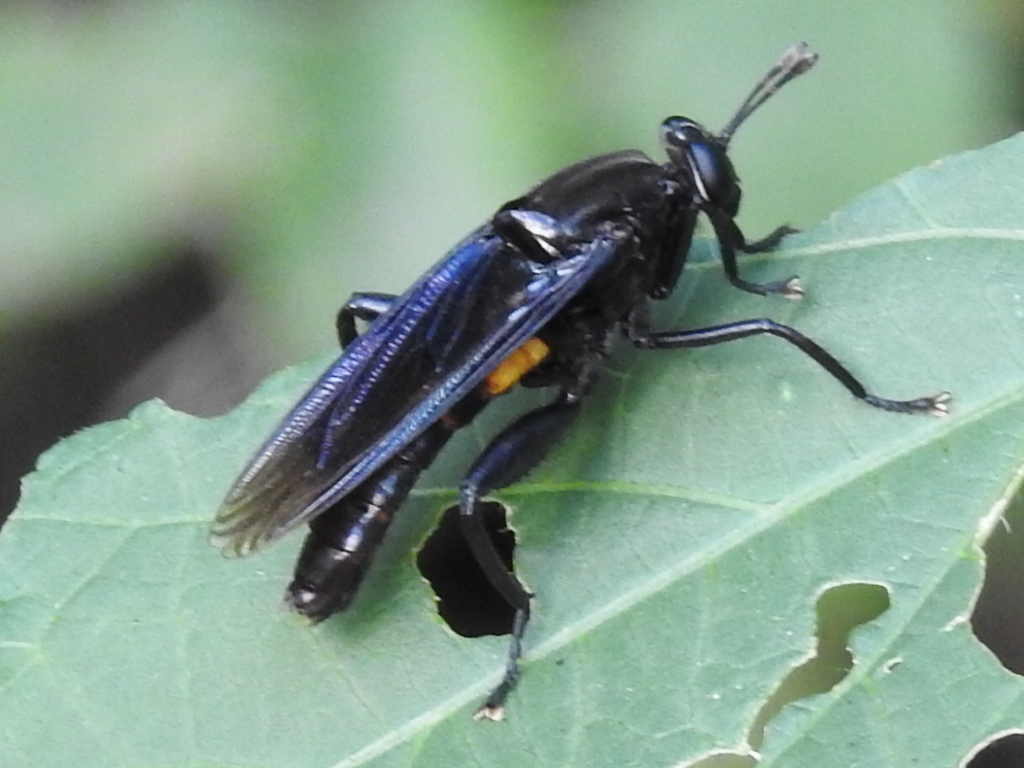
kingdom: Animalia
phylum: Arthropoda
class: Insecta
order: Diptera
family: Mydidae
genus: Mydas
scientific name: Mydas clavatus
